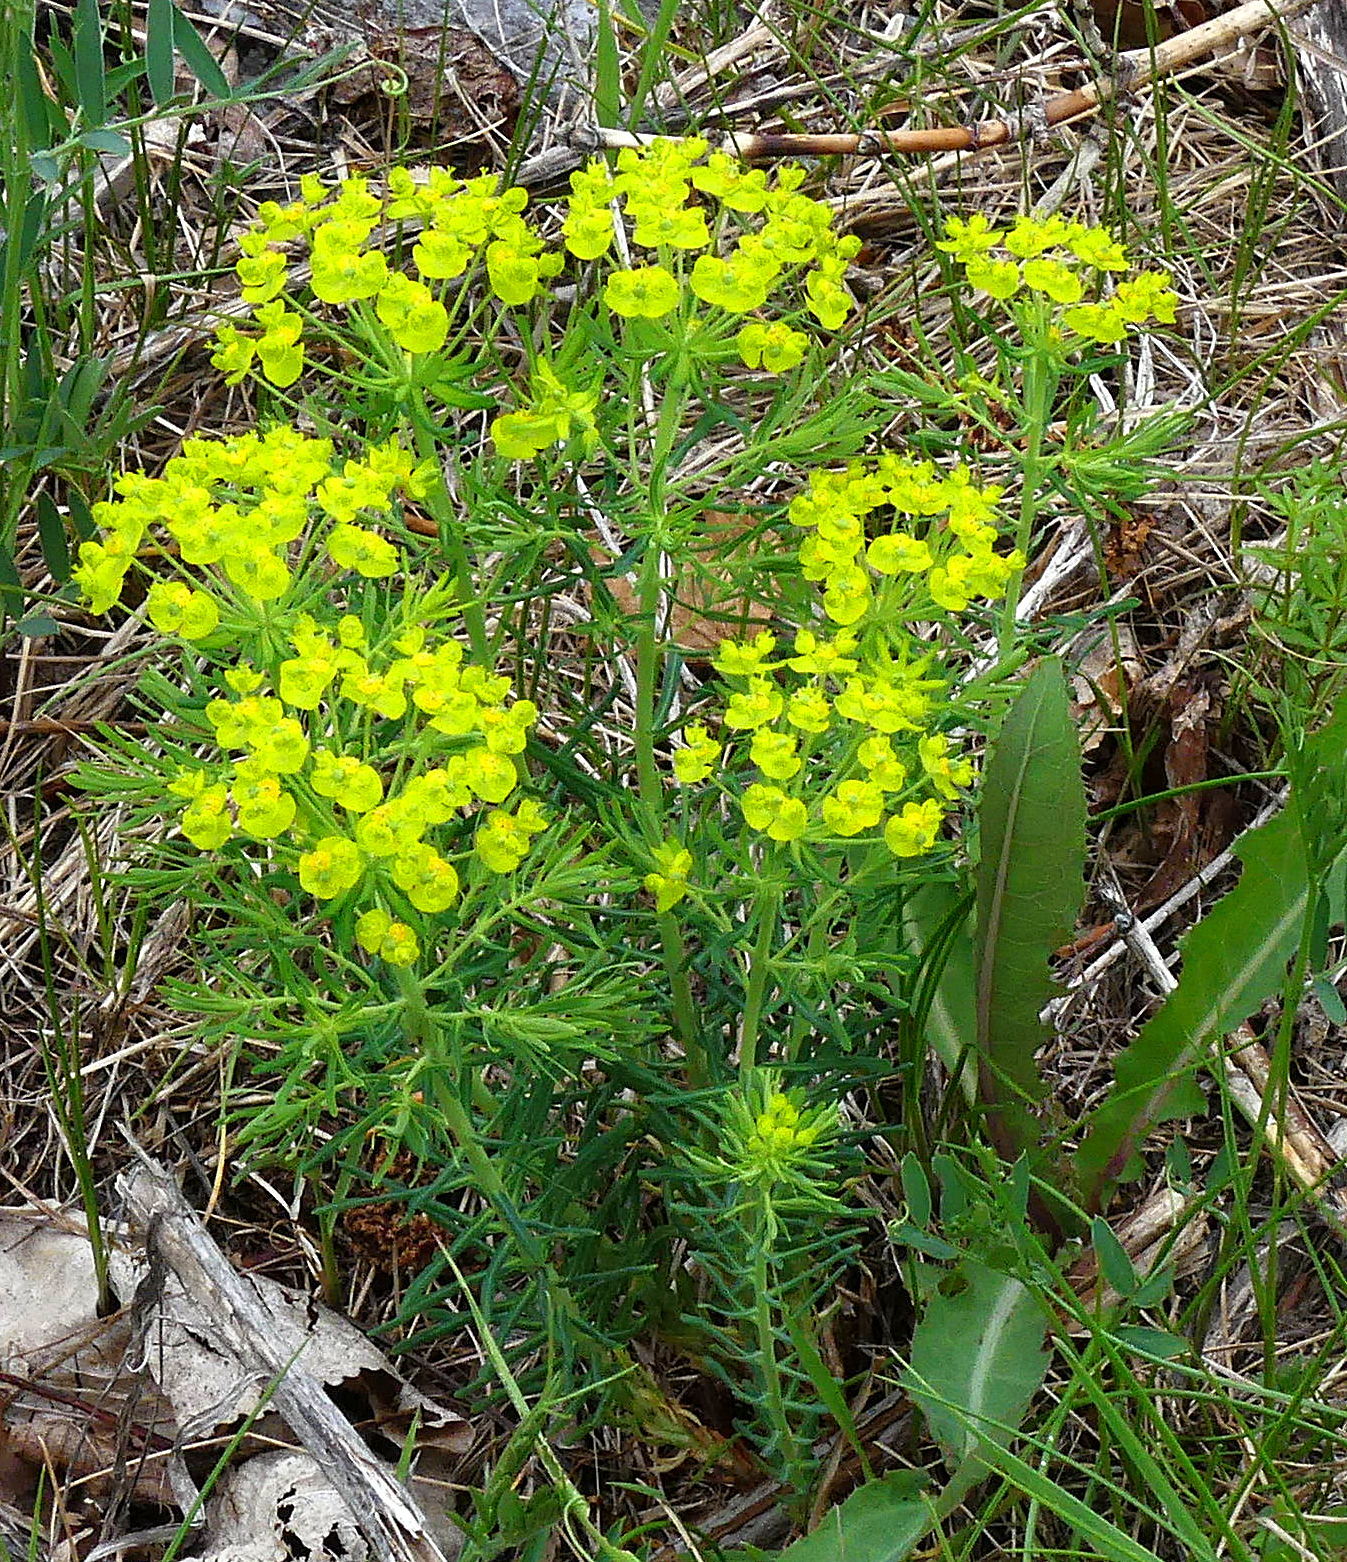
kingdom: Plantae
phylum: Tracheophyta
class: Magnoliopsida
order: Malpighiales
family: Euphorbiaceae
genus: Euphorbia
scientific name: Euphorbia cyparissias
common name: Cypress spurge
